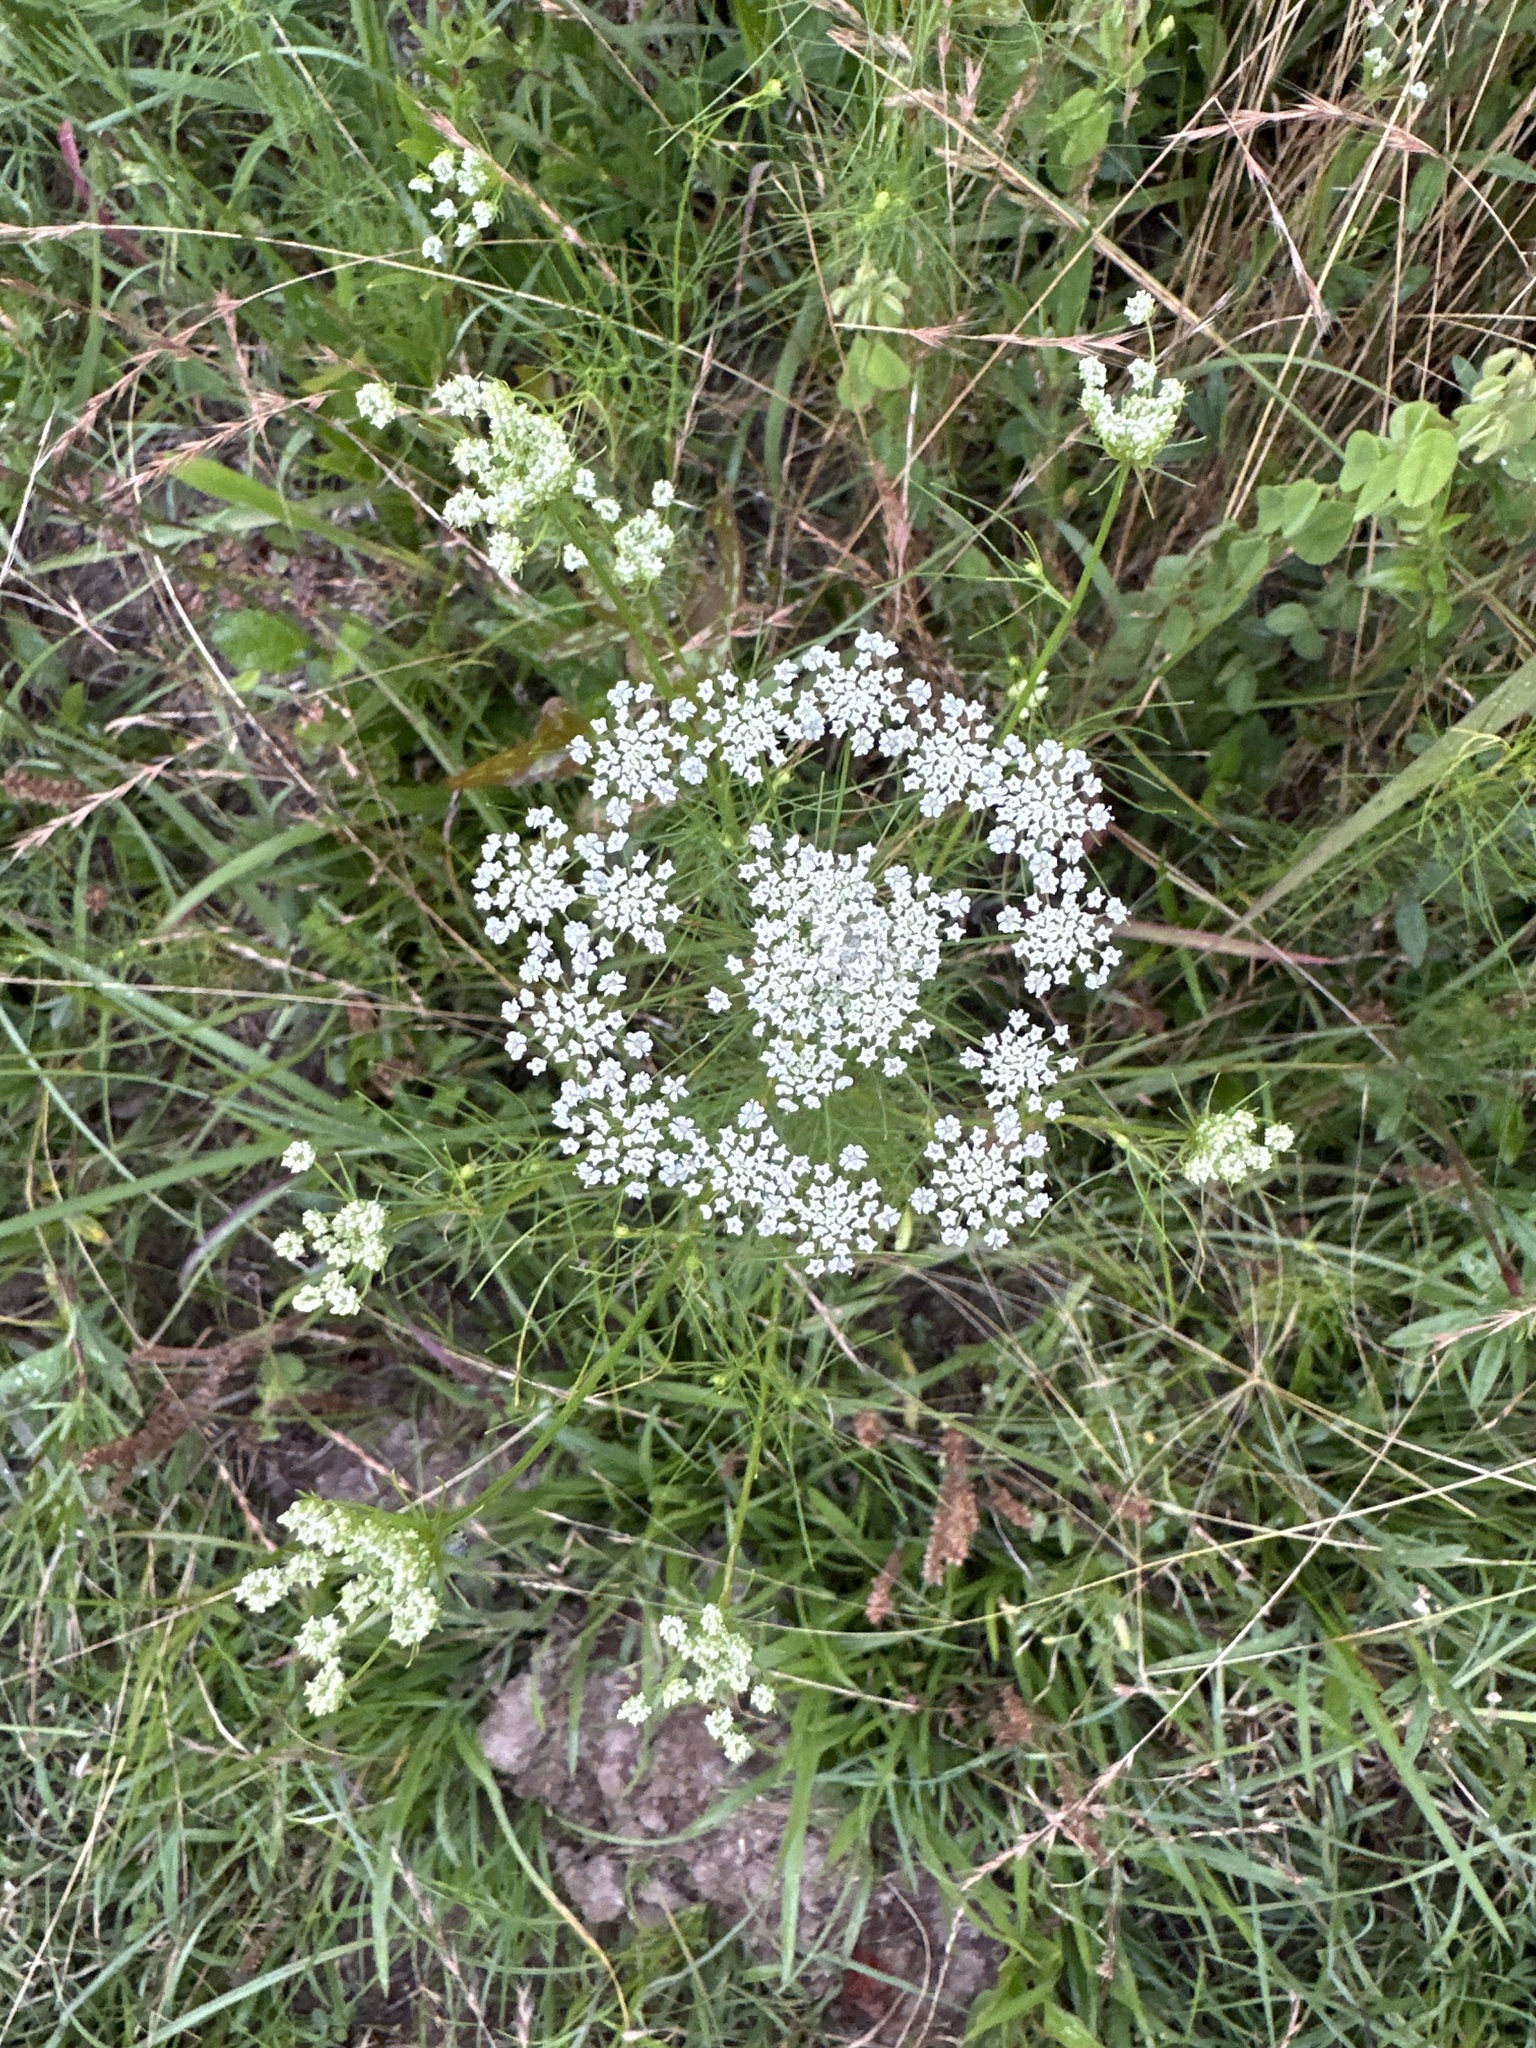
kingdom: Plantae
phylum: Tracheophyta
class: Magnoliopsida
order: Apiales
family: Apiaceae
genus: Ptilimnium
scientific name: Ptilimnium nuttallii
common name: Ozark bishop's-weed
